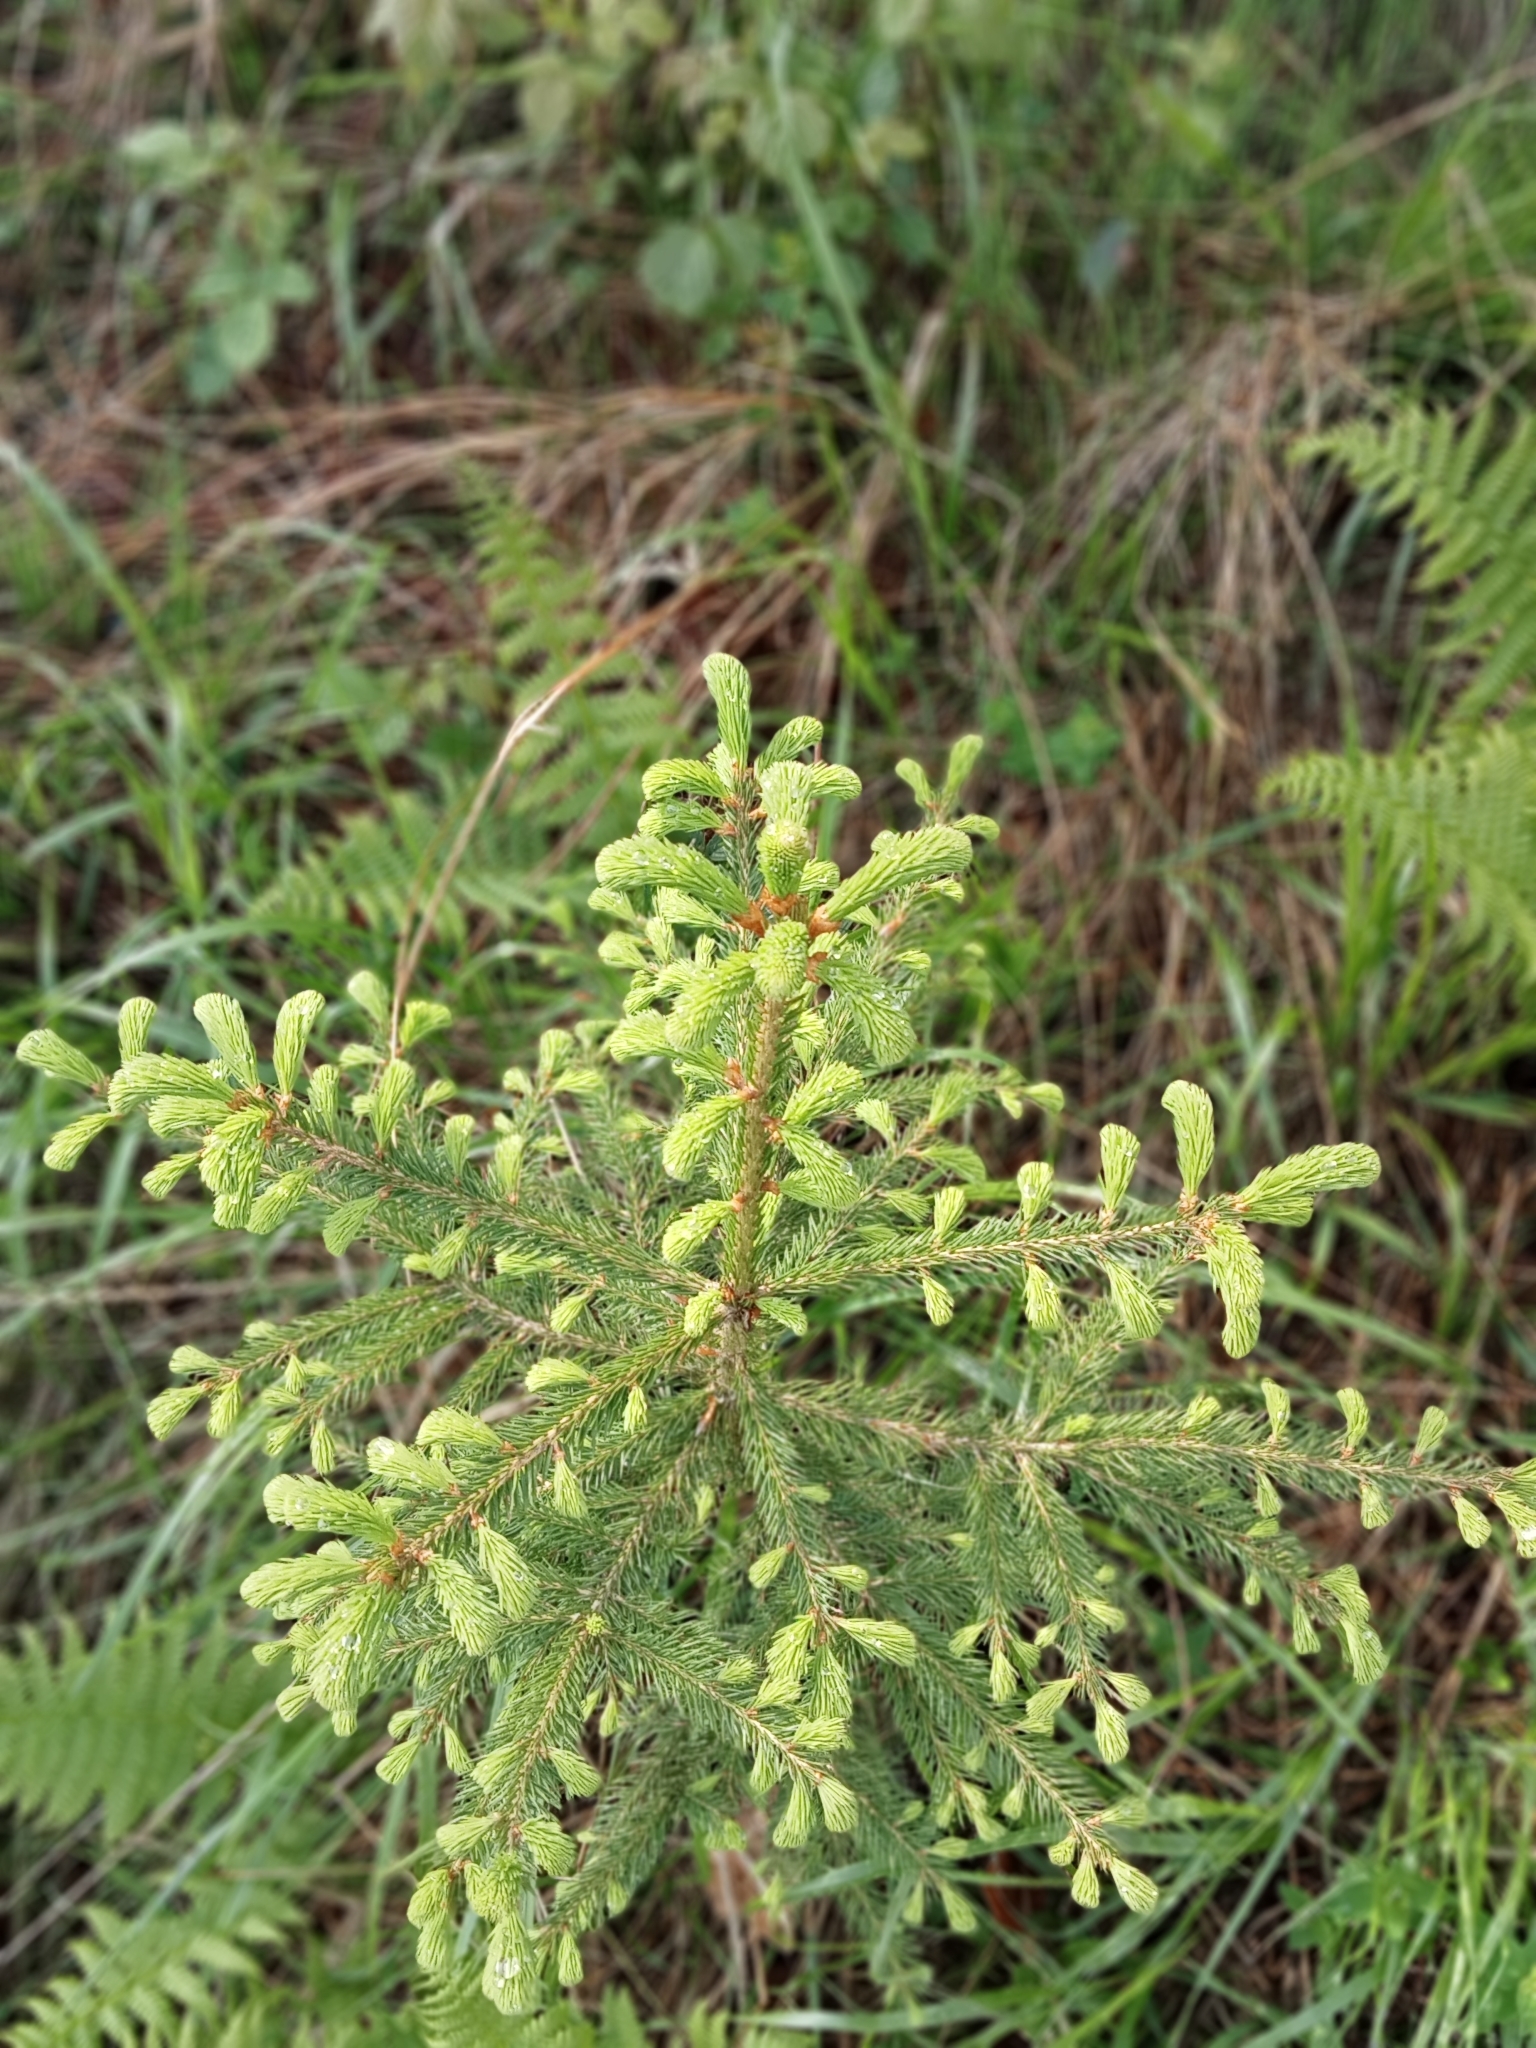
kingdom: Plantae
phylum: Tracheophyta
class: Pinopsida
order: Pinales
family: Pinaceae
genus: Picea
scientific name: Picea abies
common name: Norway spruce
